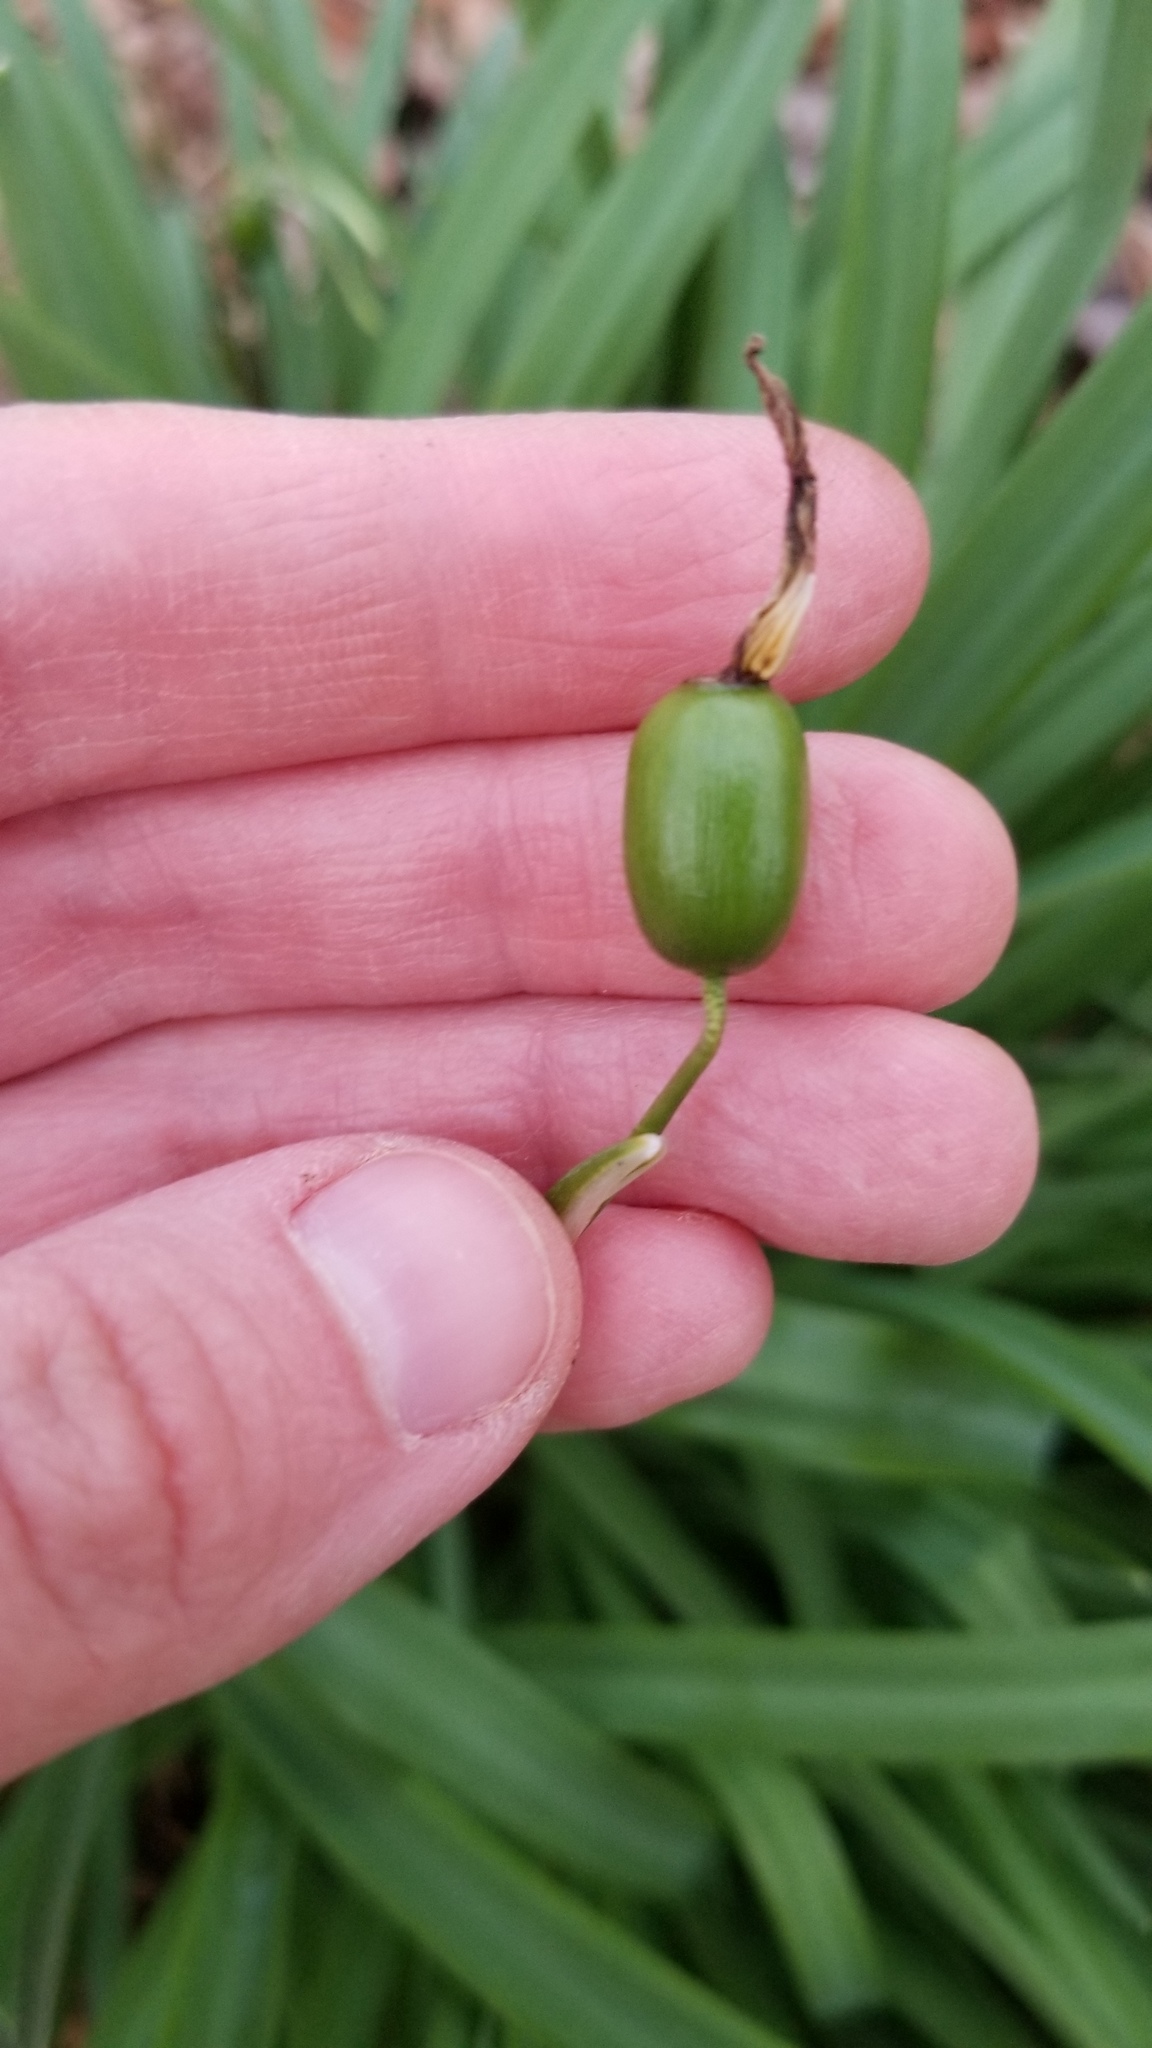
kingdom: Plantae
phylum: Tracheophyta
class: Liliopsida
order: Asparagales
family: Amaryllidaceae
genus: Galanthus
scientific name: Galanthus nivalis
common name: Snowdrop
